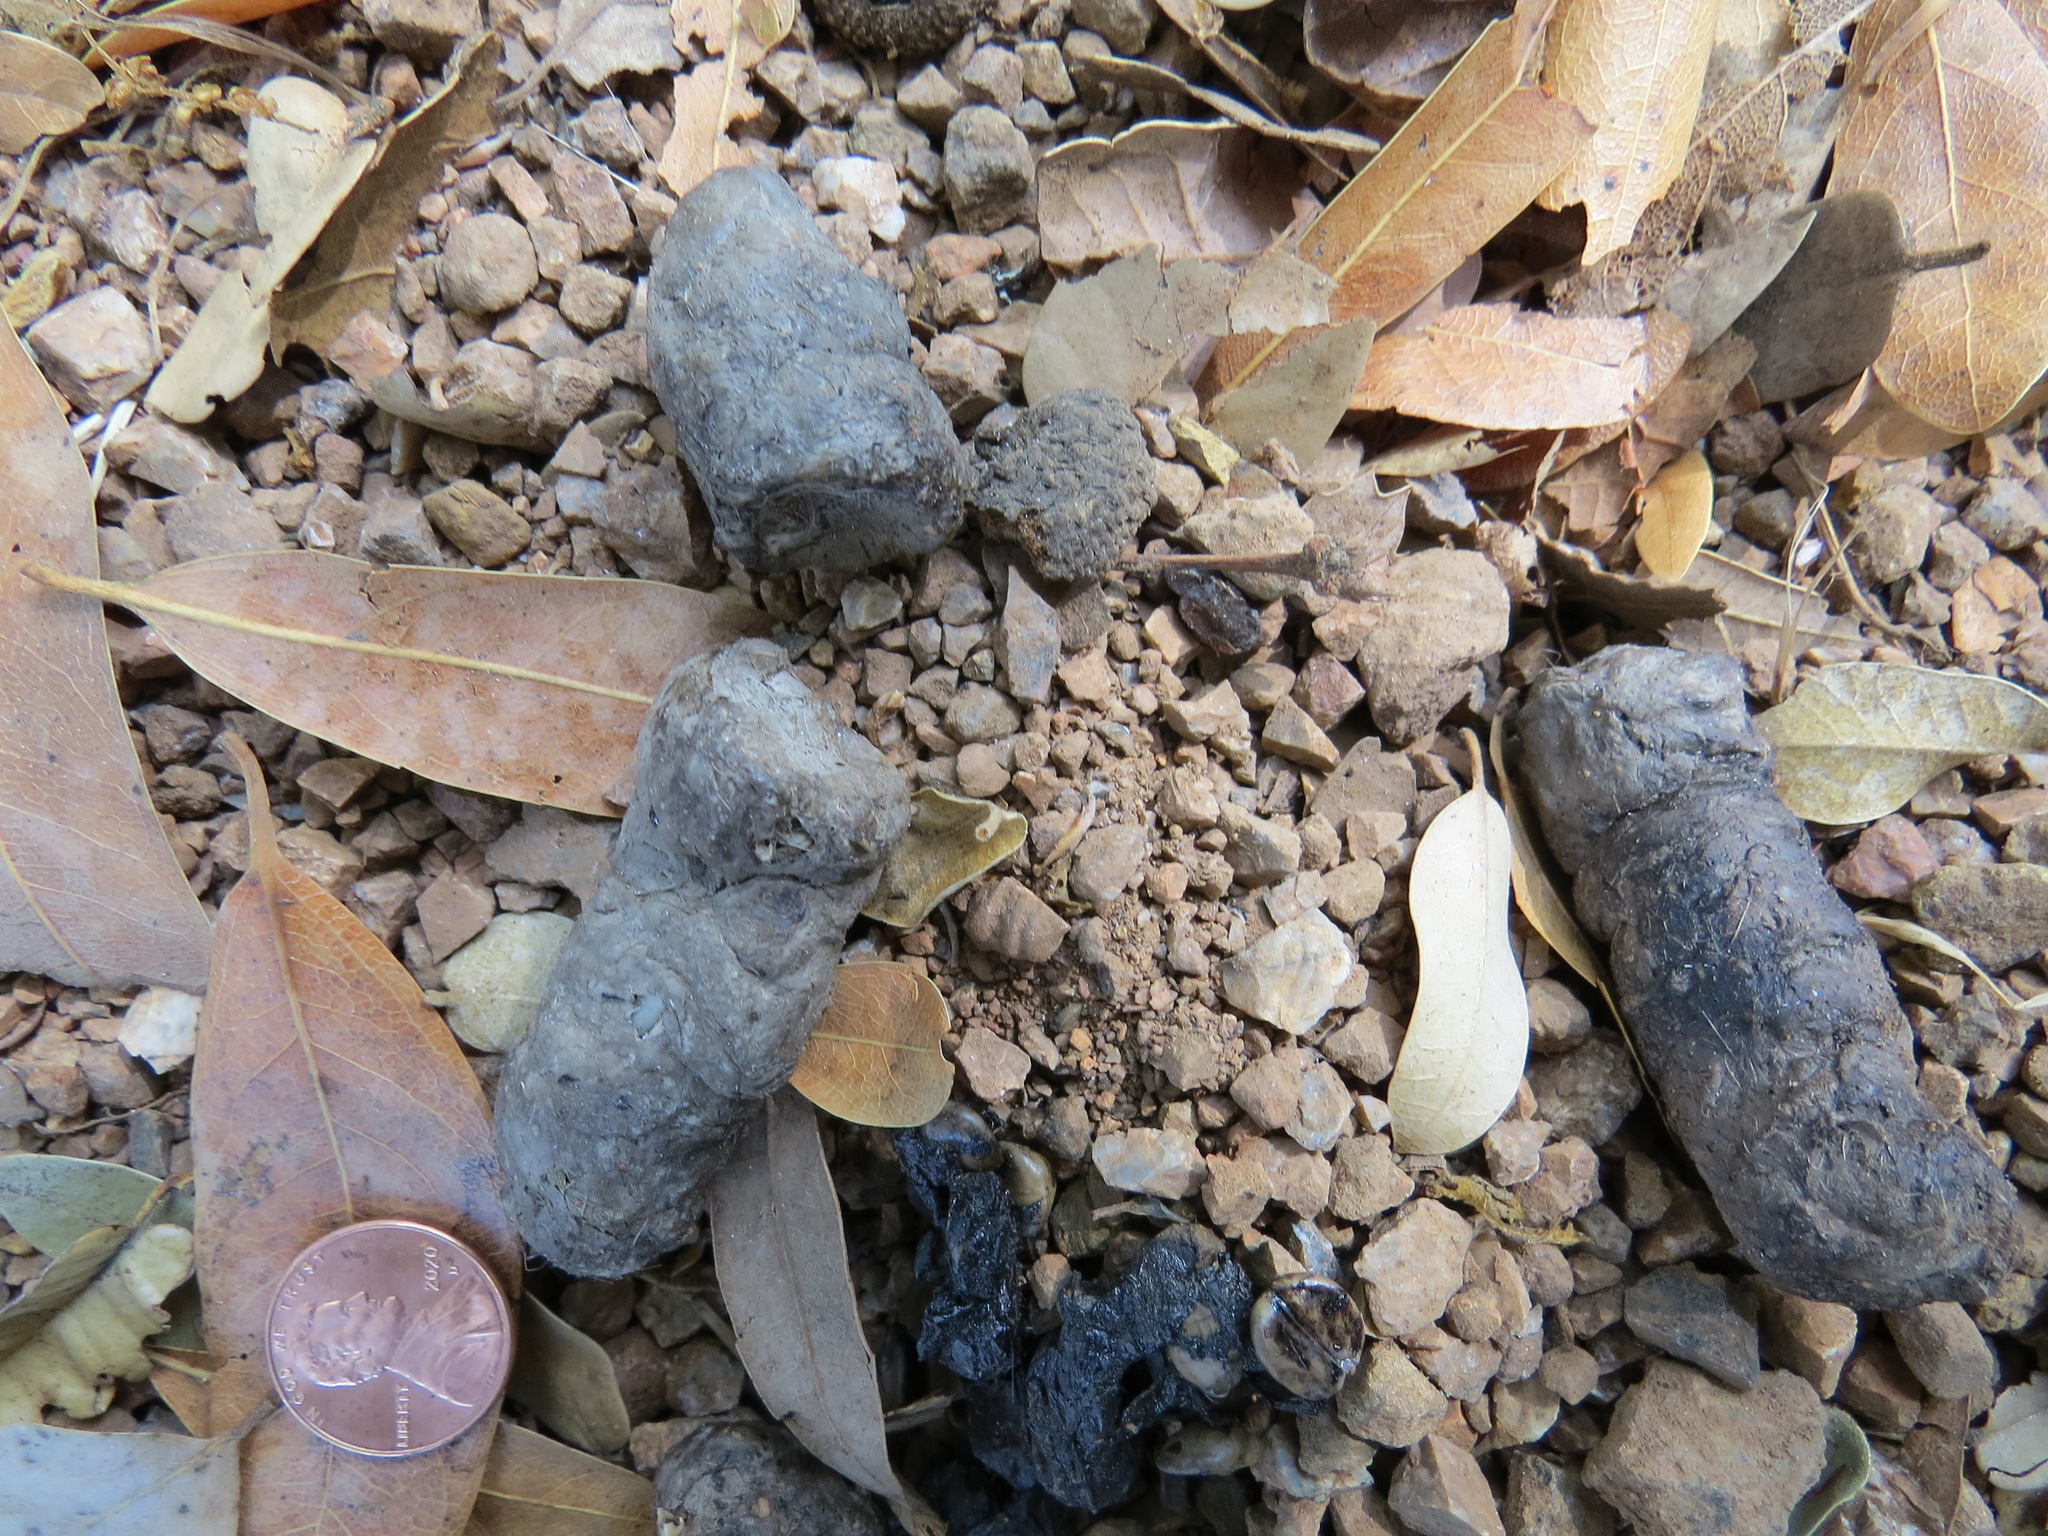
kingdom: Animalia
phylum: Chordata
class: Mammalia
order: Carnivora
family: Felidae
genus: Lynx
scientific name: Lynx rufus
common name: Bobcat
